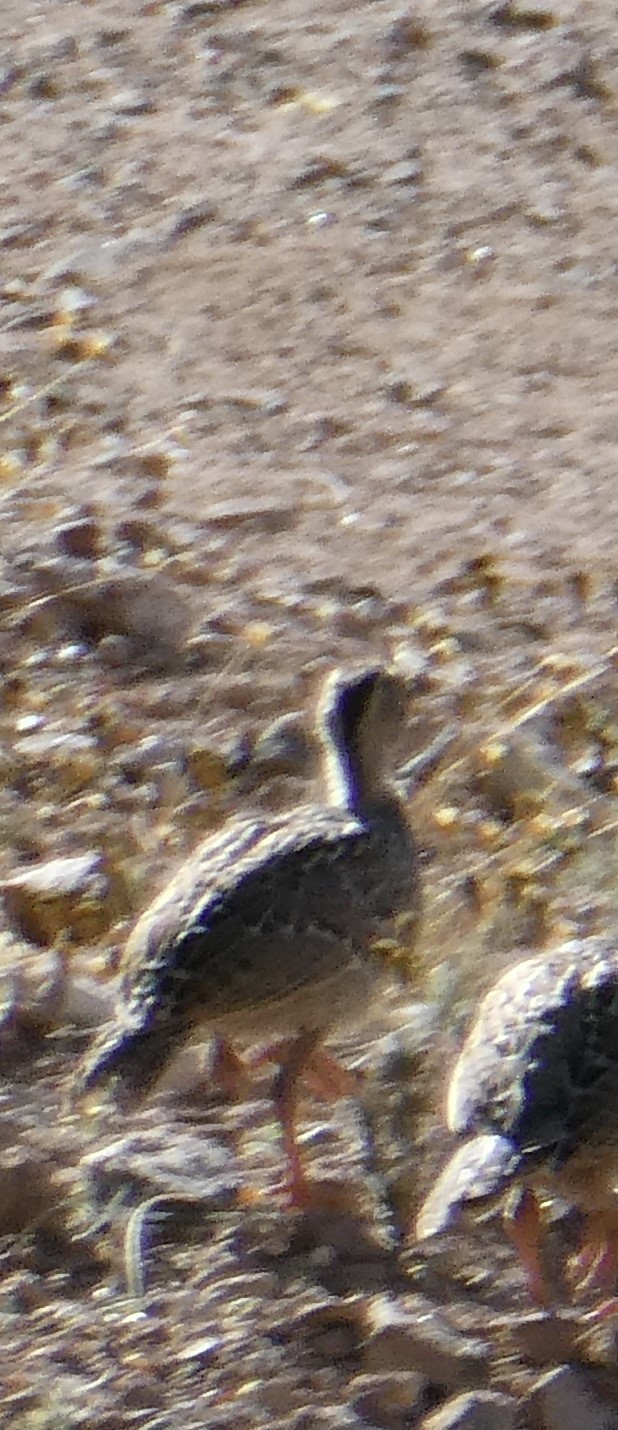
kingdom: Animalia
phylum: Chordata
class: Aves
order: Galliformes
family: Odontophoridae
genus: Callipepla
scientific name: Callipepla gambelii
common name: Gambel's quail
